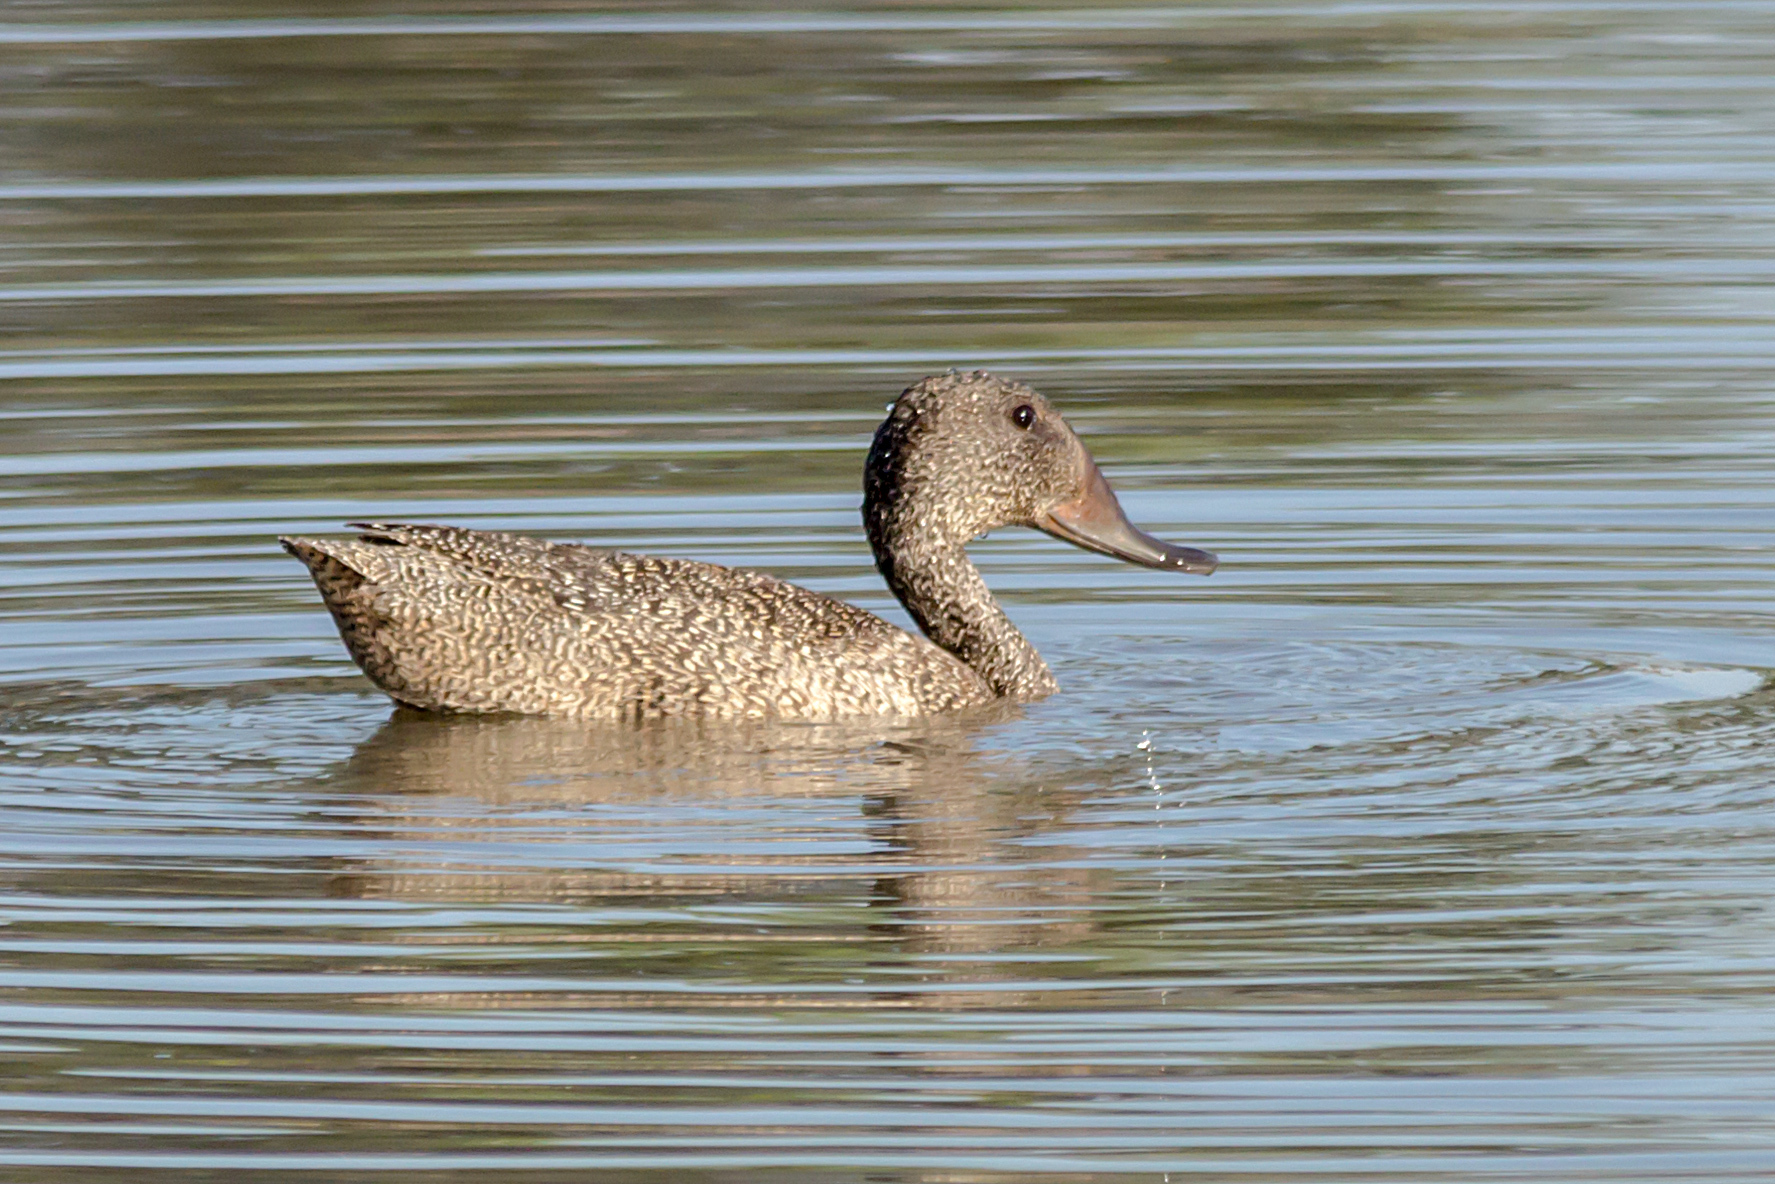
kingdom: Animalia
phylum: Chordata
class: Aves
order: Anseriformes
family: Anatidae
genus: Stictonetta
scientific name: Stictonetta naevosa
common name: Freckled duck
